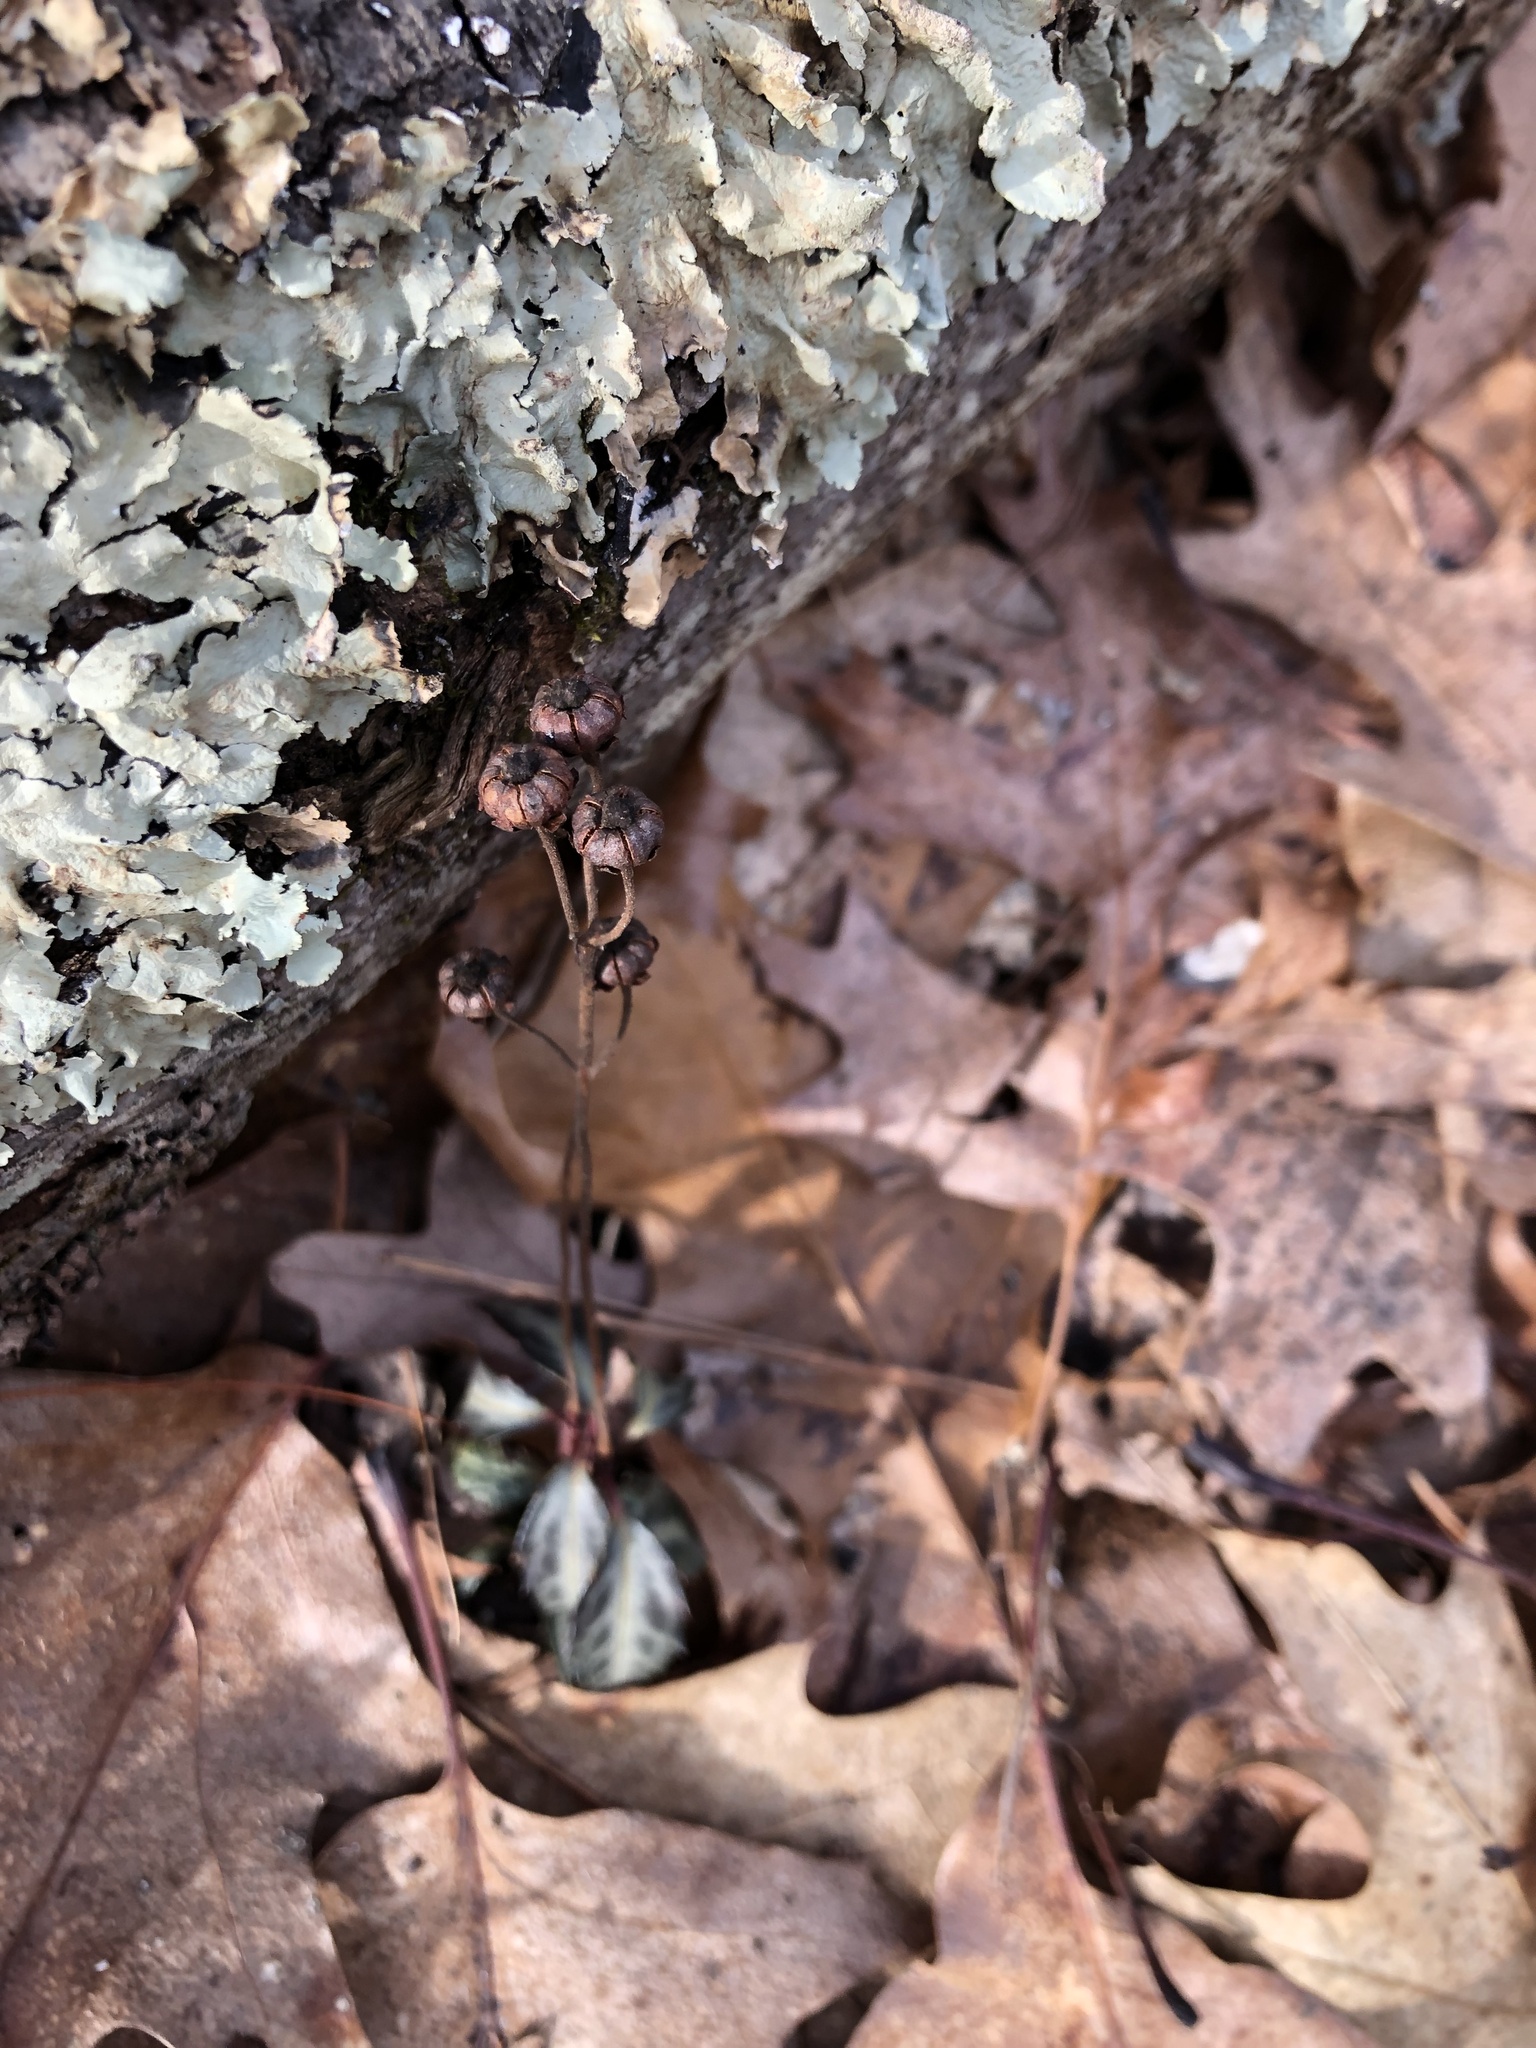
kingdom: Plantae
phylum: Tracheophyta
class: Magnoliopsida
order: Ericales
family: Ericaceae
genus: Chimaphila
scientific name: Chimaphila maculata
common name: Spotted pipsissewa
